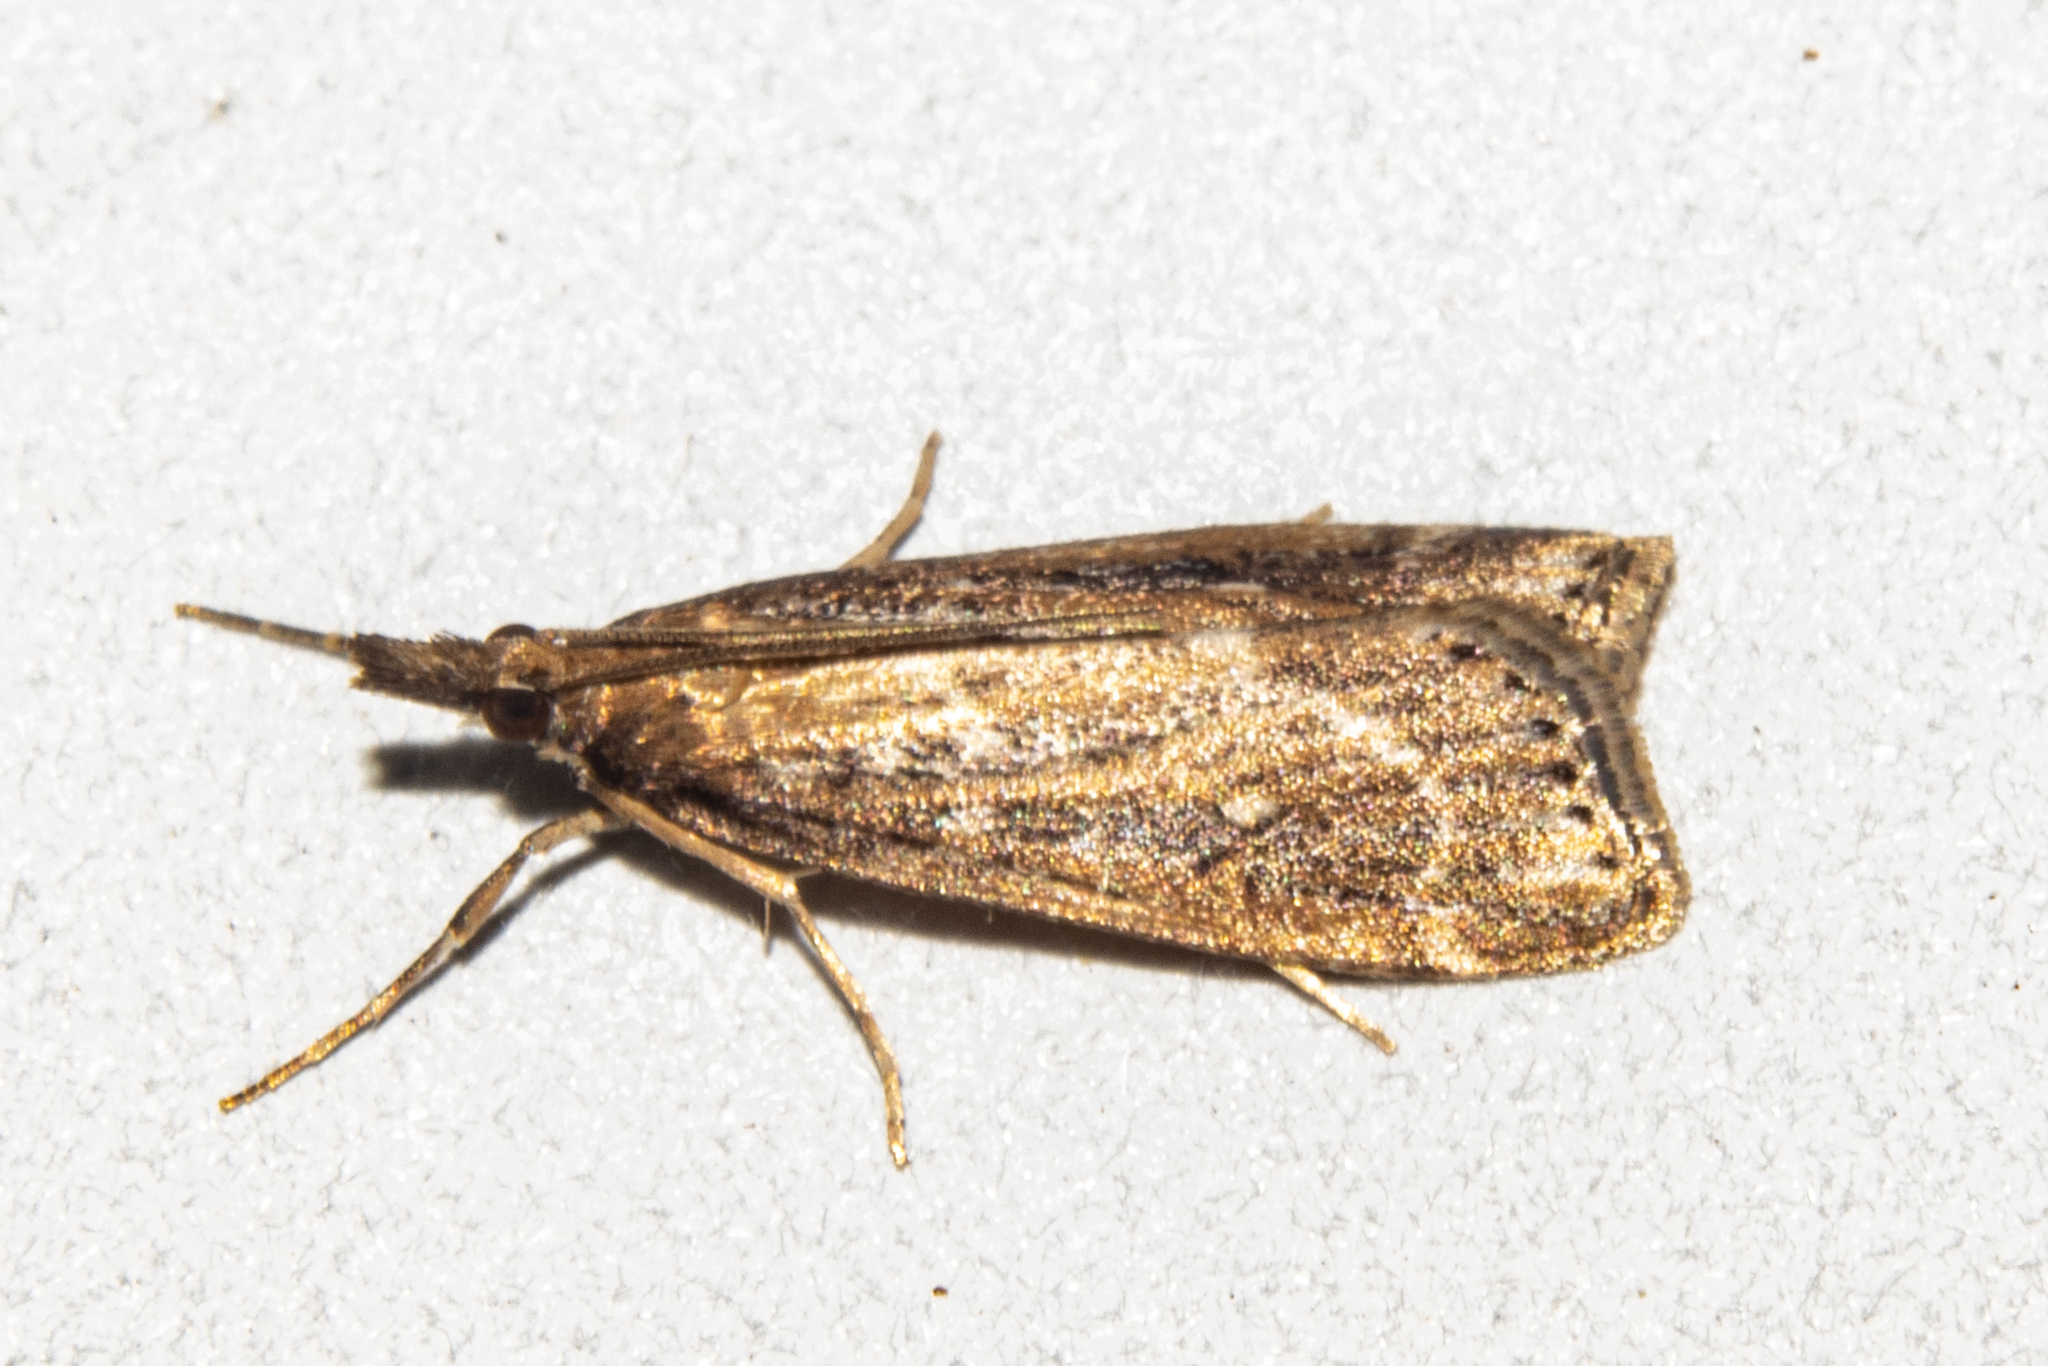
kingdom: Animalia
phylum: Arthropoda
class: Insecta
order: Lepidoptera
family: Crambidae
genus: Eudonia
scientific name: Eudonia octophora
